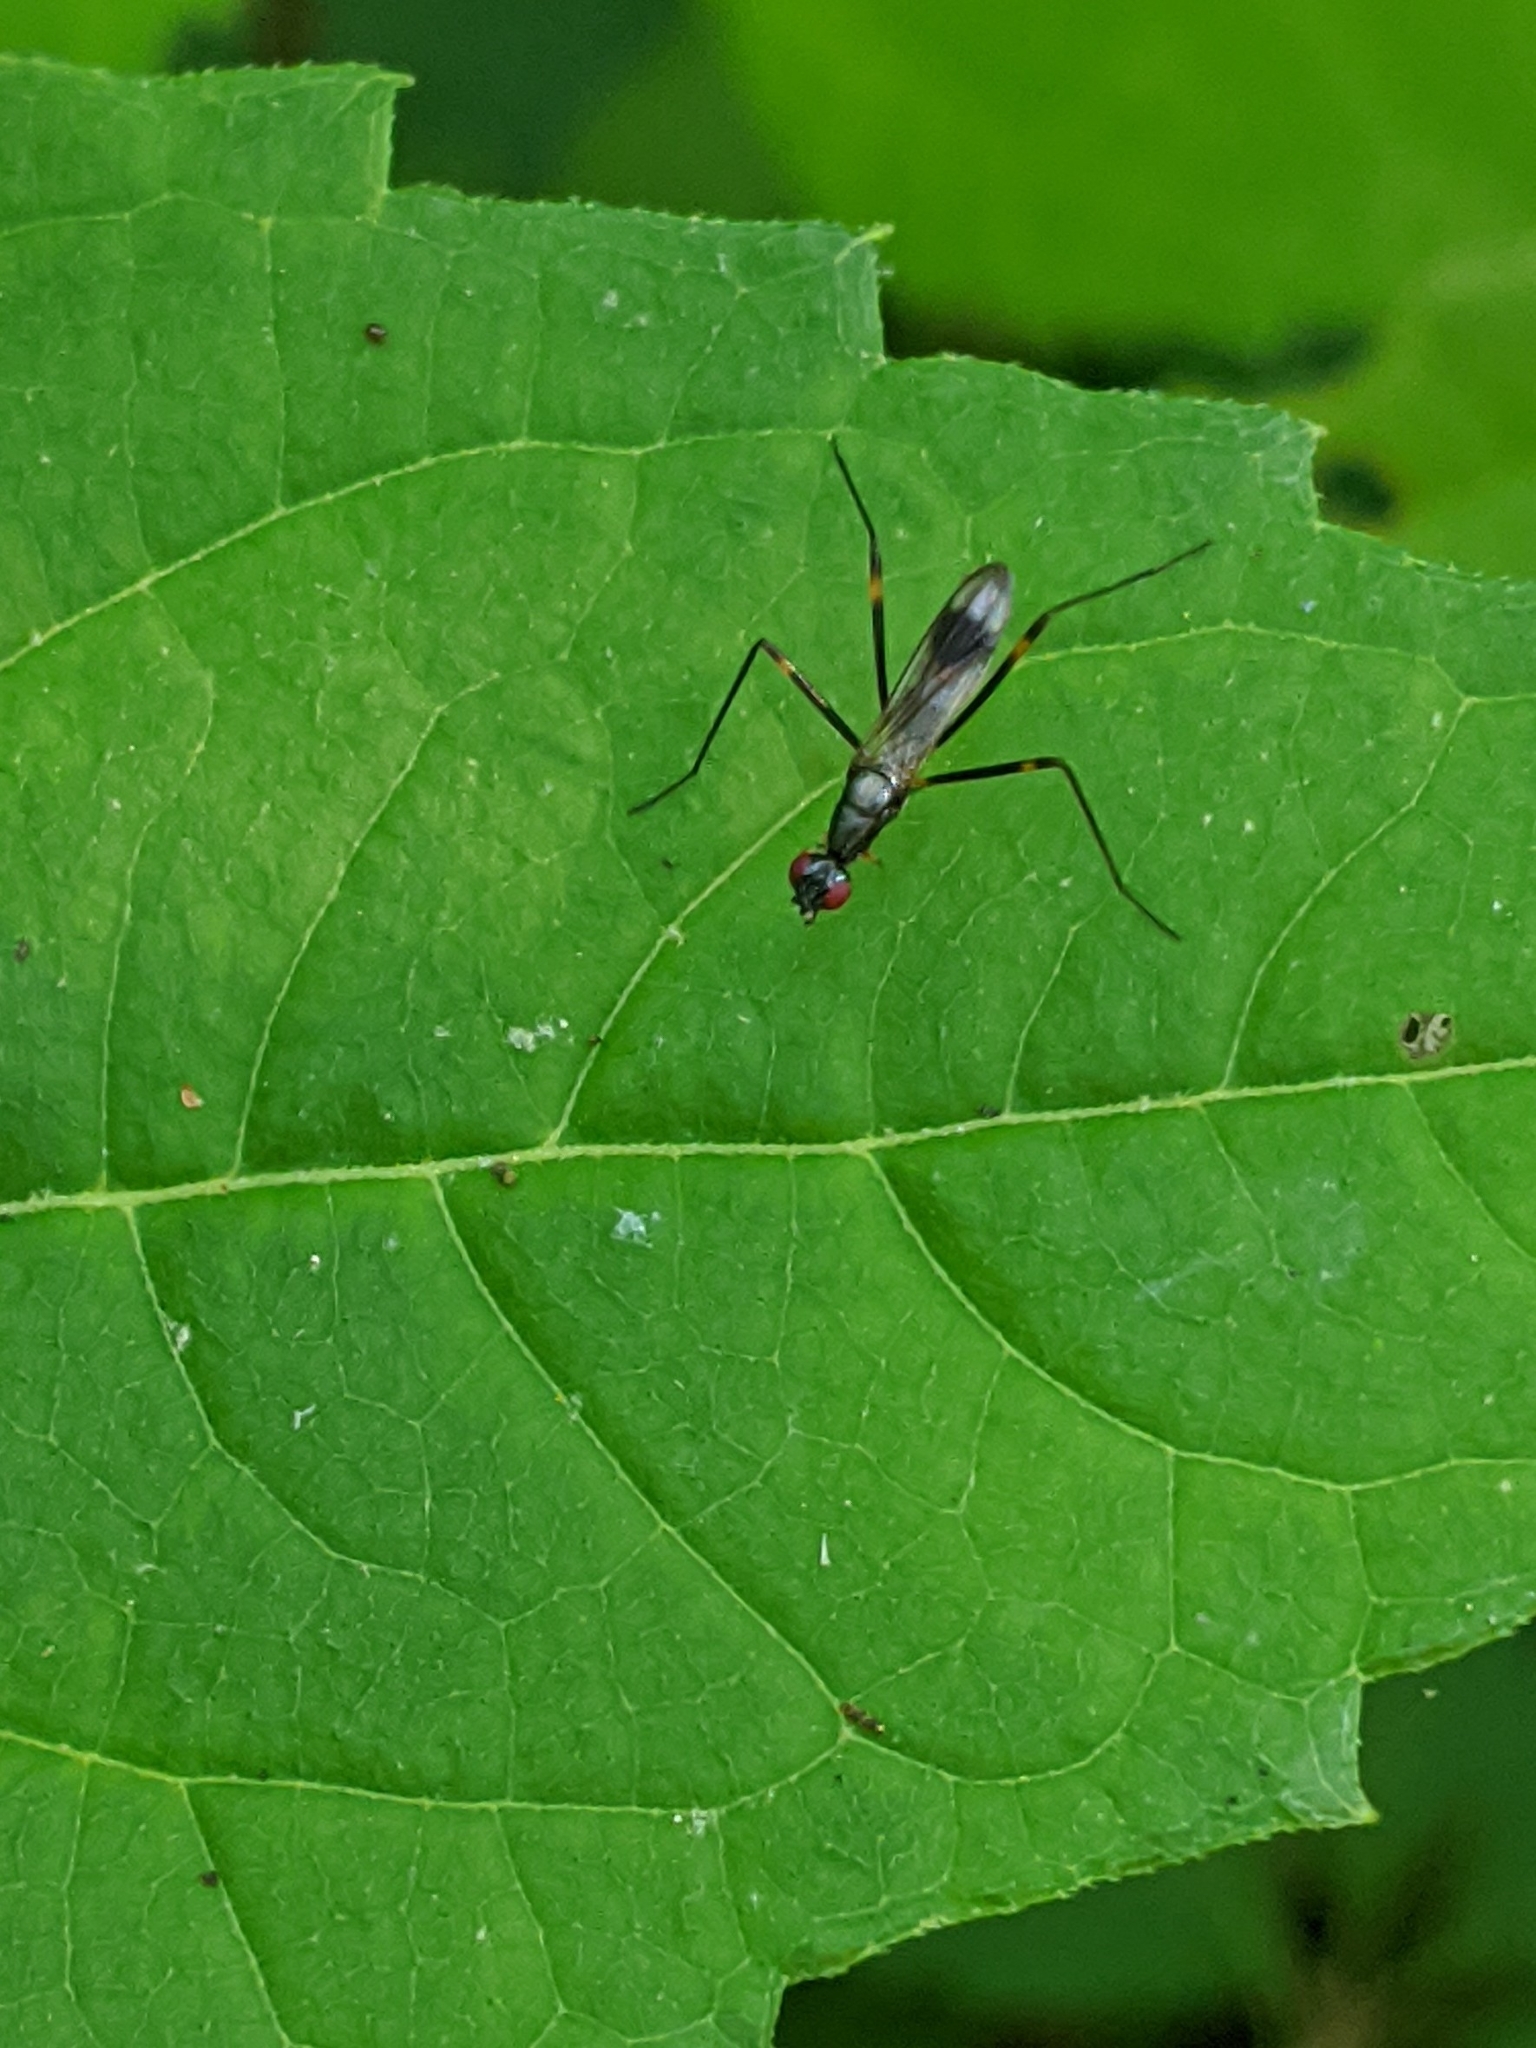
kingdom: Animalia
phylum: Arthropoda
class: Insecta
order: Diptera
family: Micropezidae
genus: Rainieria
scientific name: Rainieria antennaepes
